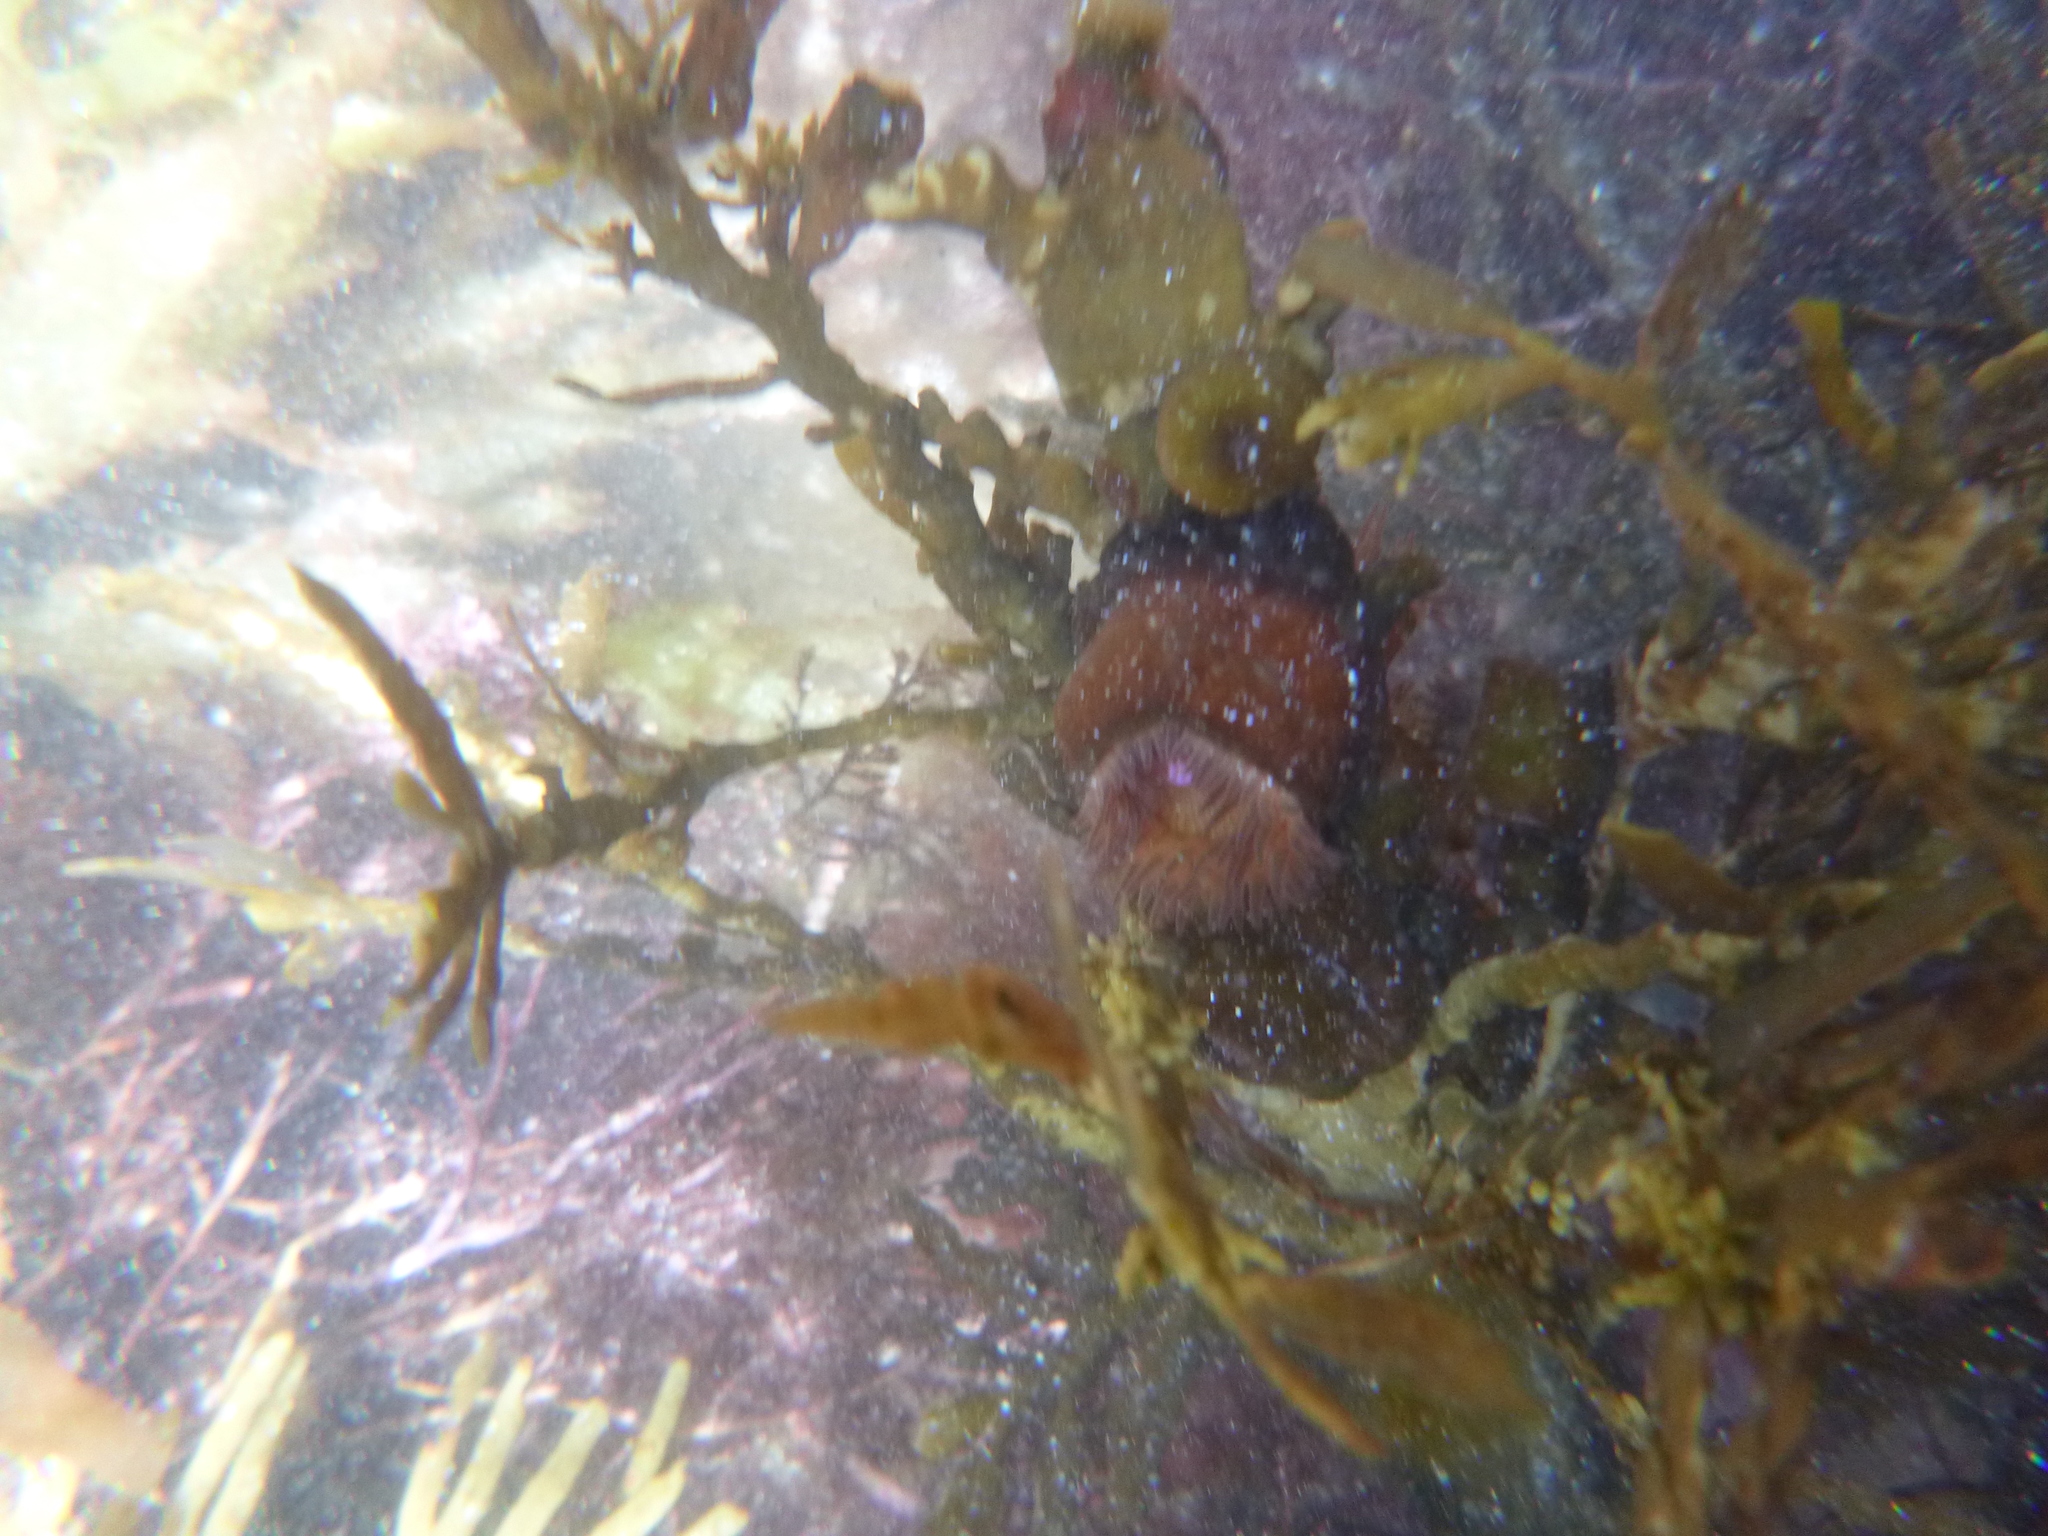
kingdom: Animalia
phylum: Cnidaria
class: Anthozoa
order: Actiniaria
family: Hormathiidae
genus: Handactis
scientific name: Handactis nutrix
